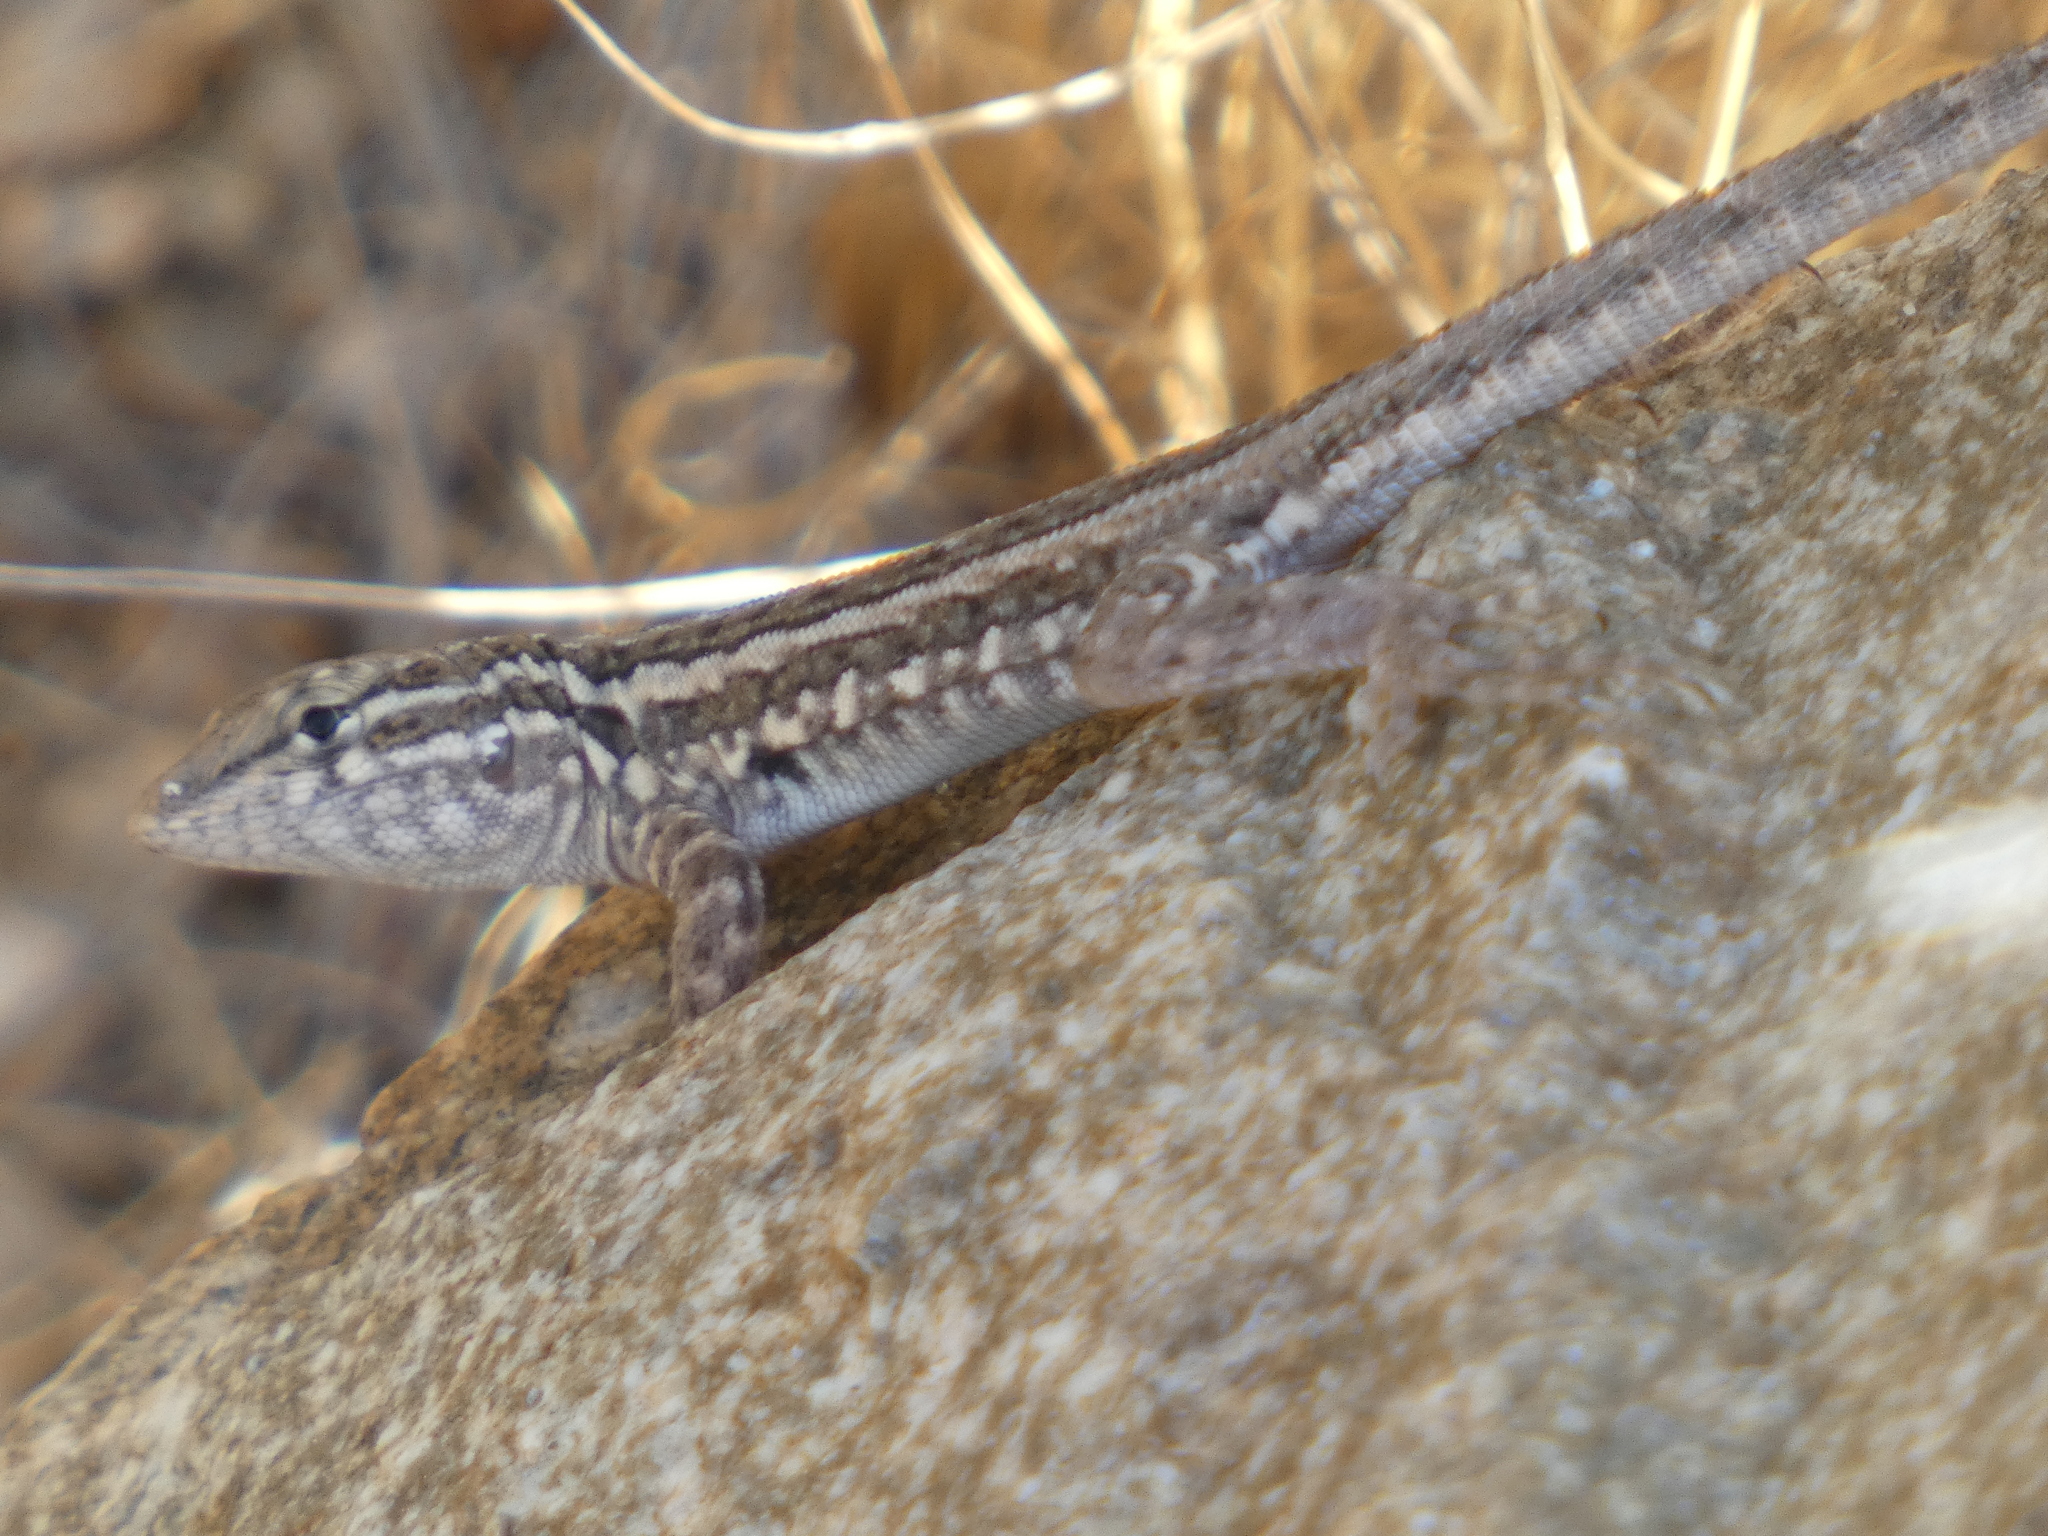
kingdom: Animalia
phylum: Chordata
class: Squamata
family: Phrynosomatidae
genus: Uta
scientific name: Uta stansburiana
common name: Side-blotched lizard
